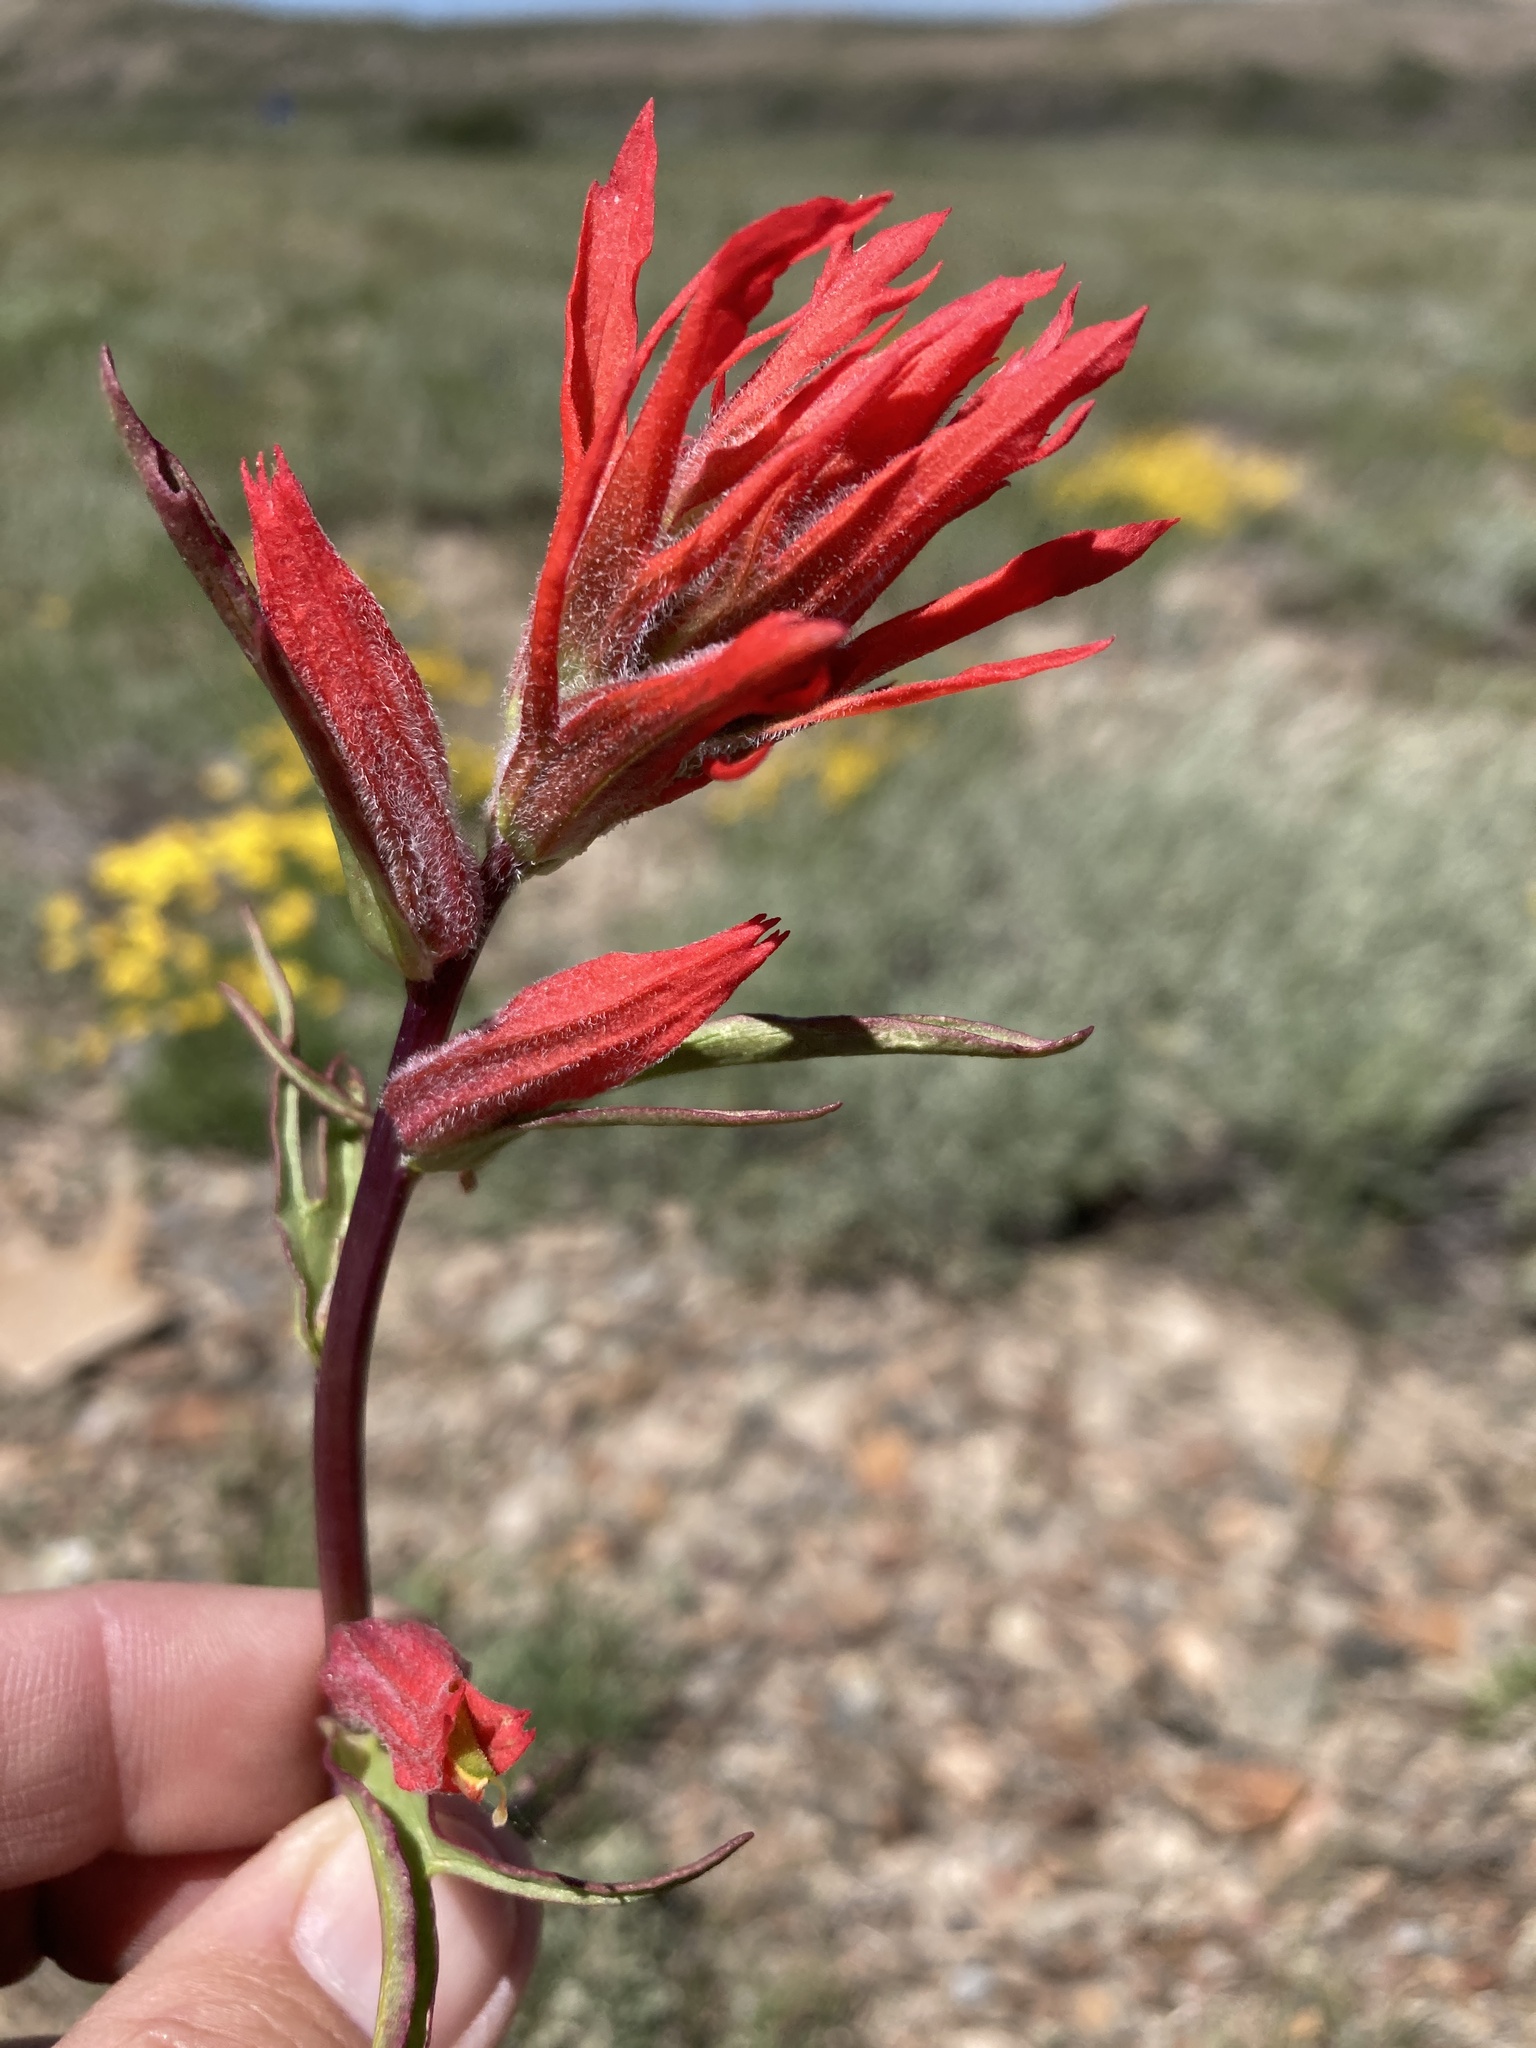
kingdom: Plantae
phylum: Tracheophyta
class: Magnoliopsida
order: Lamiales
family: Orobanchaceae
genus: Castilleja
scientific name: Castilleja linariifolia
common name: Wyoming paintbrush
